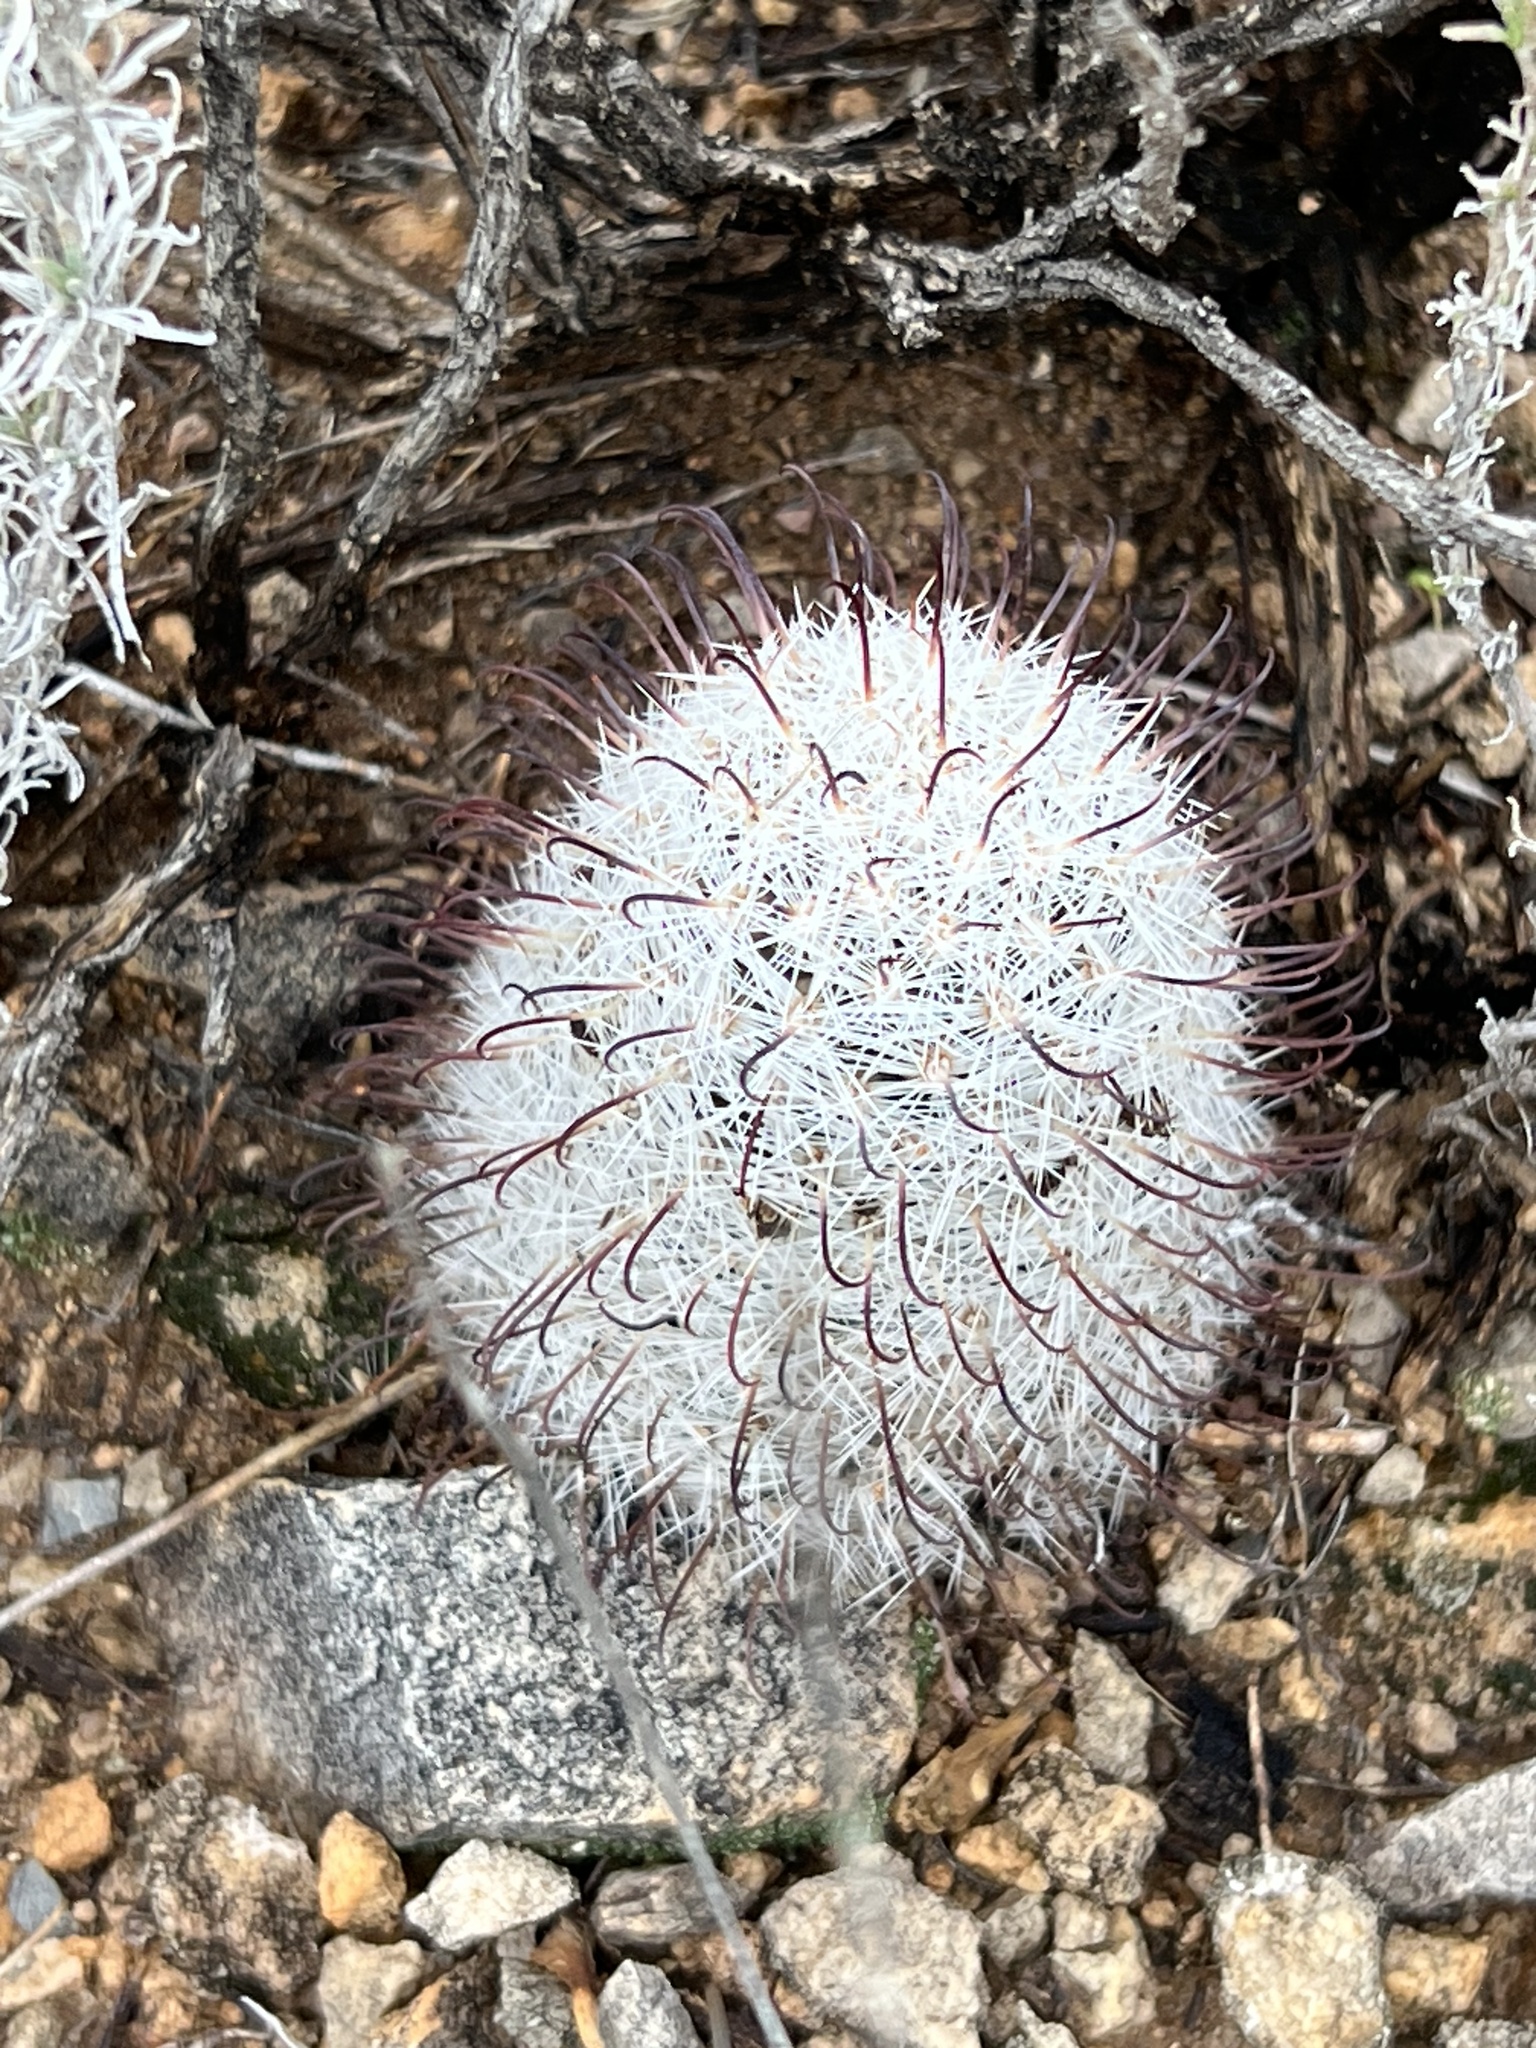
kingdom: Plantae
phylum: Tracheophyta
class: Magnoliopsida
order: Caryophyllales
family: Cactaceae
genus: Cochemiea
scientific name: Cochemiea grahamii
